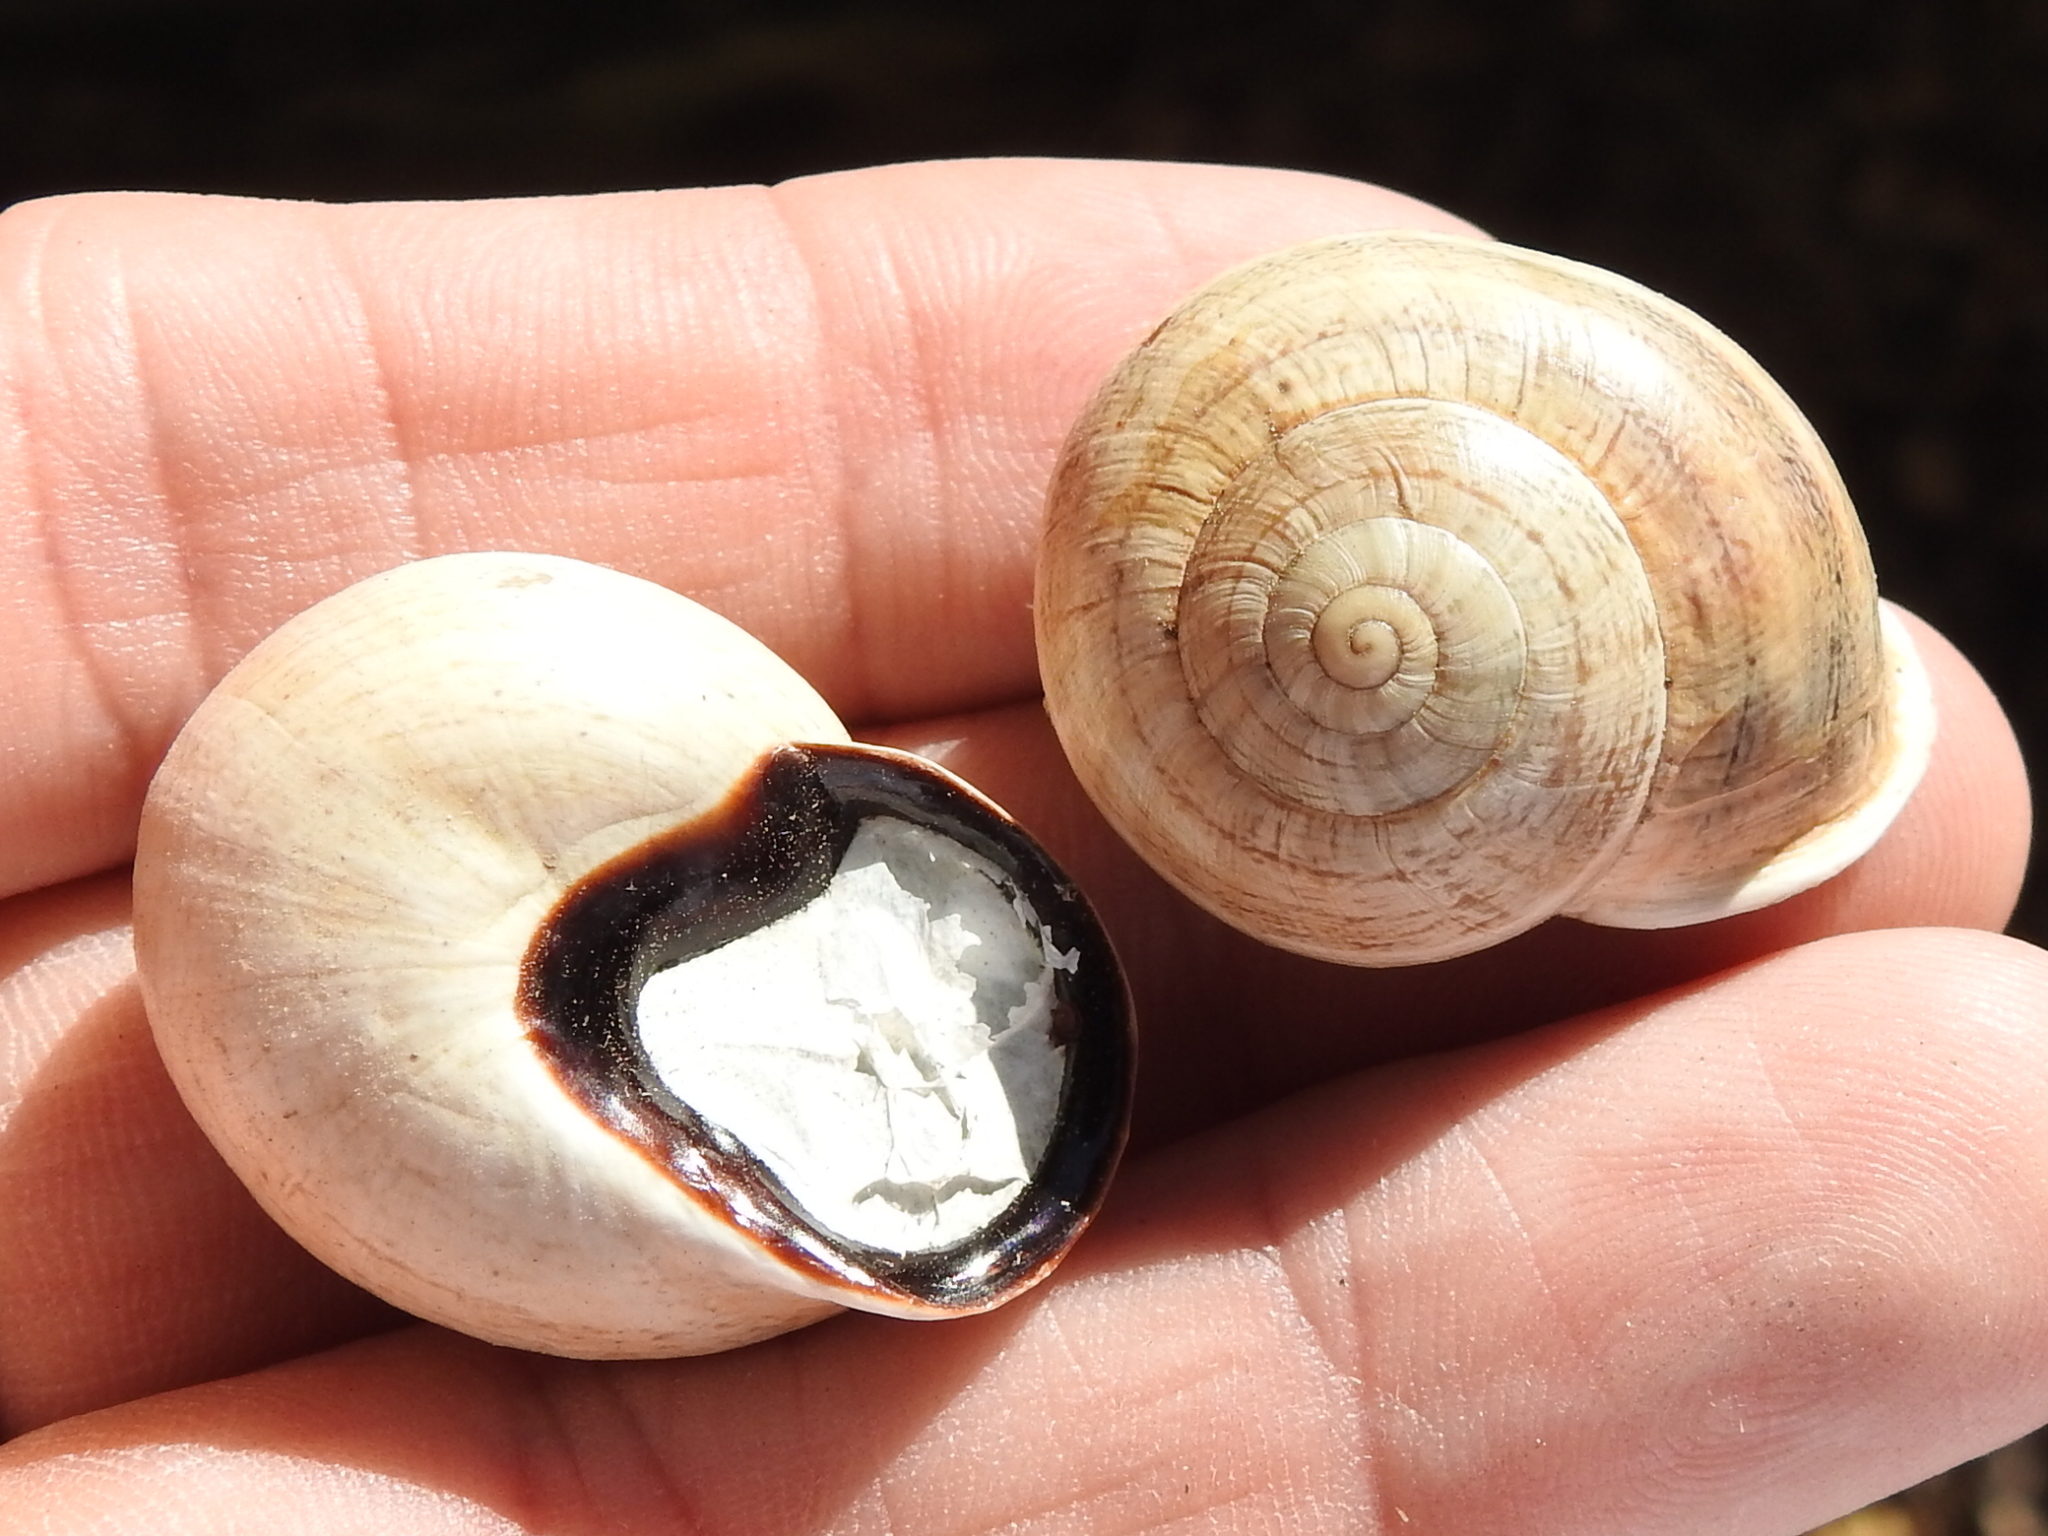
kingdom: Animalia
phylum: Mollusca
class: Gastropoda
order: Stylommatophora
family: Helicidae
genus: Otala
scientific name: Otala lactea
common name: Milk snail
